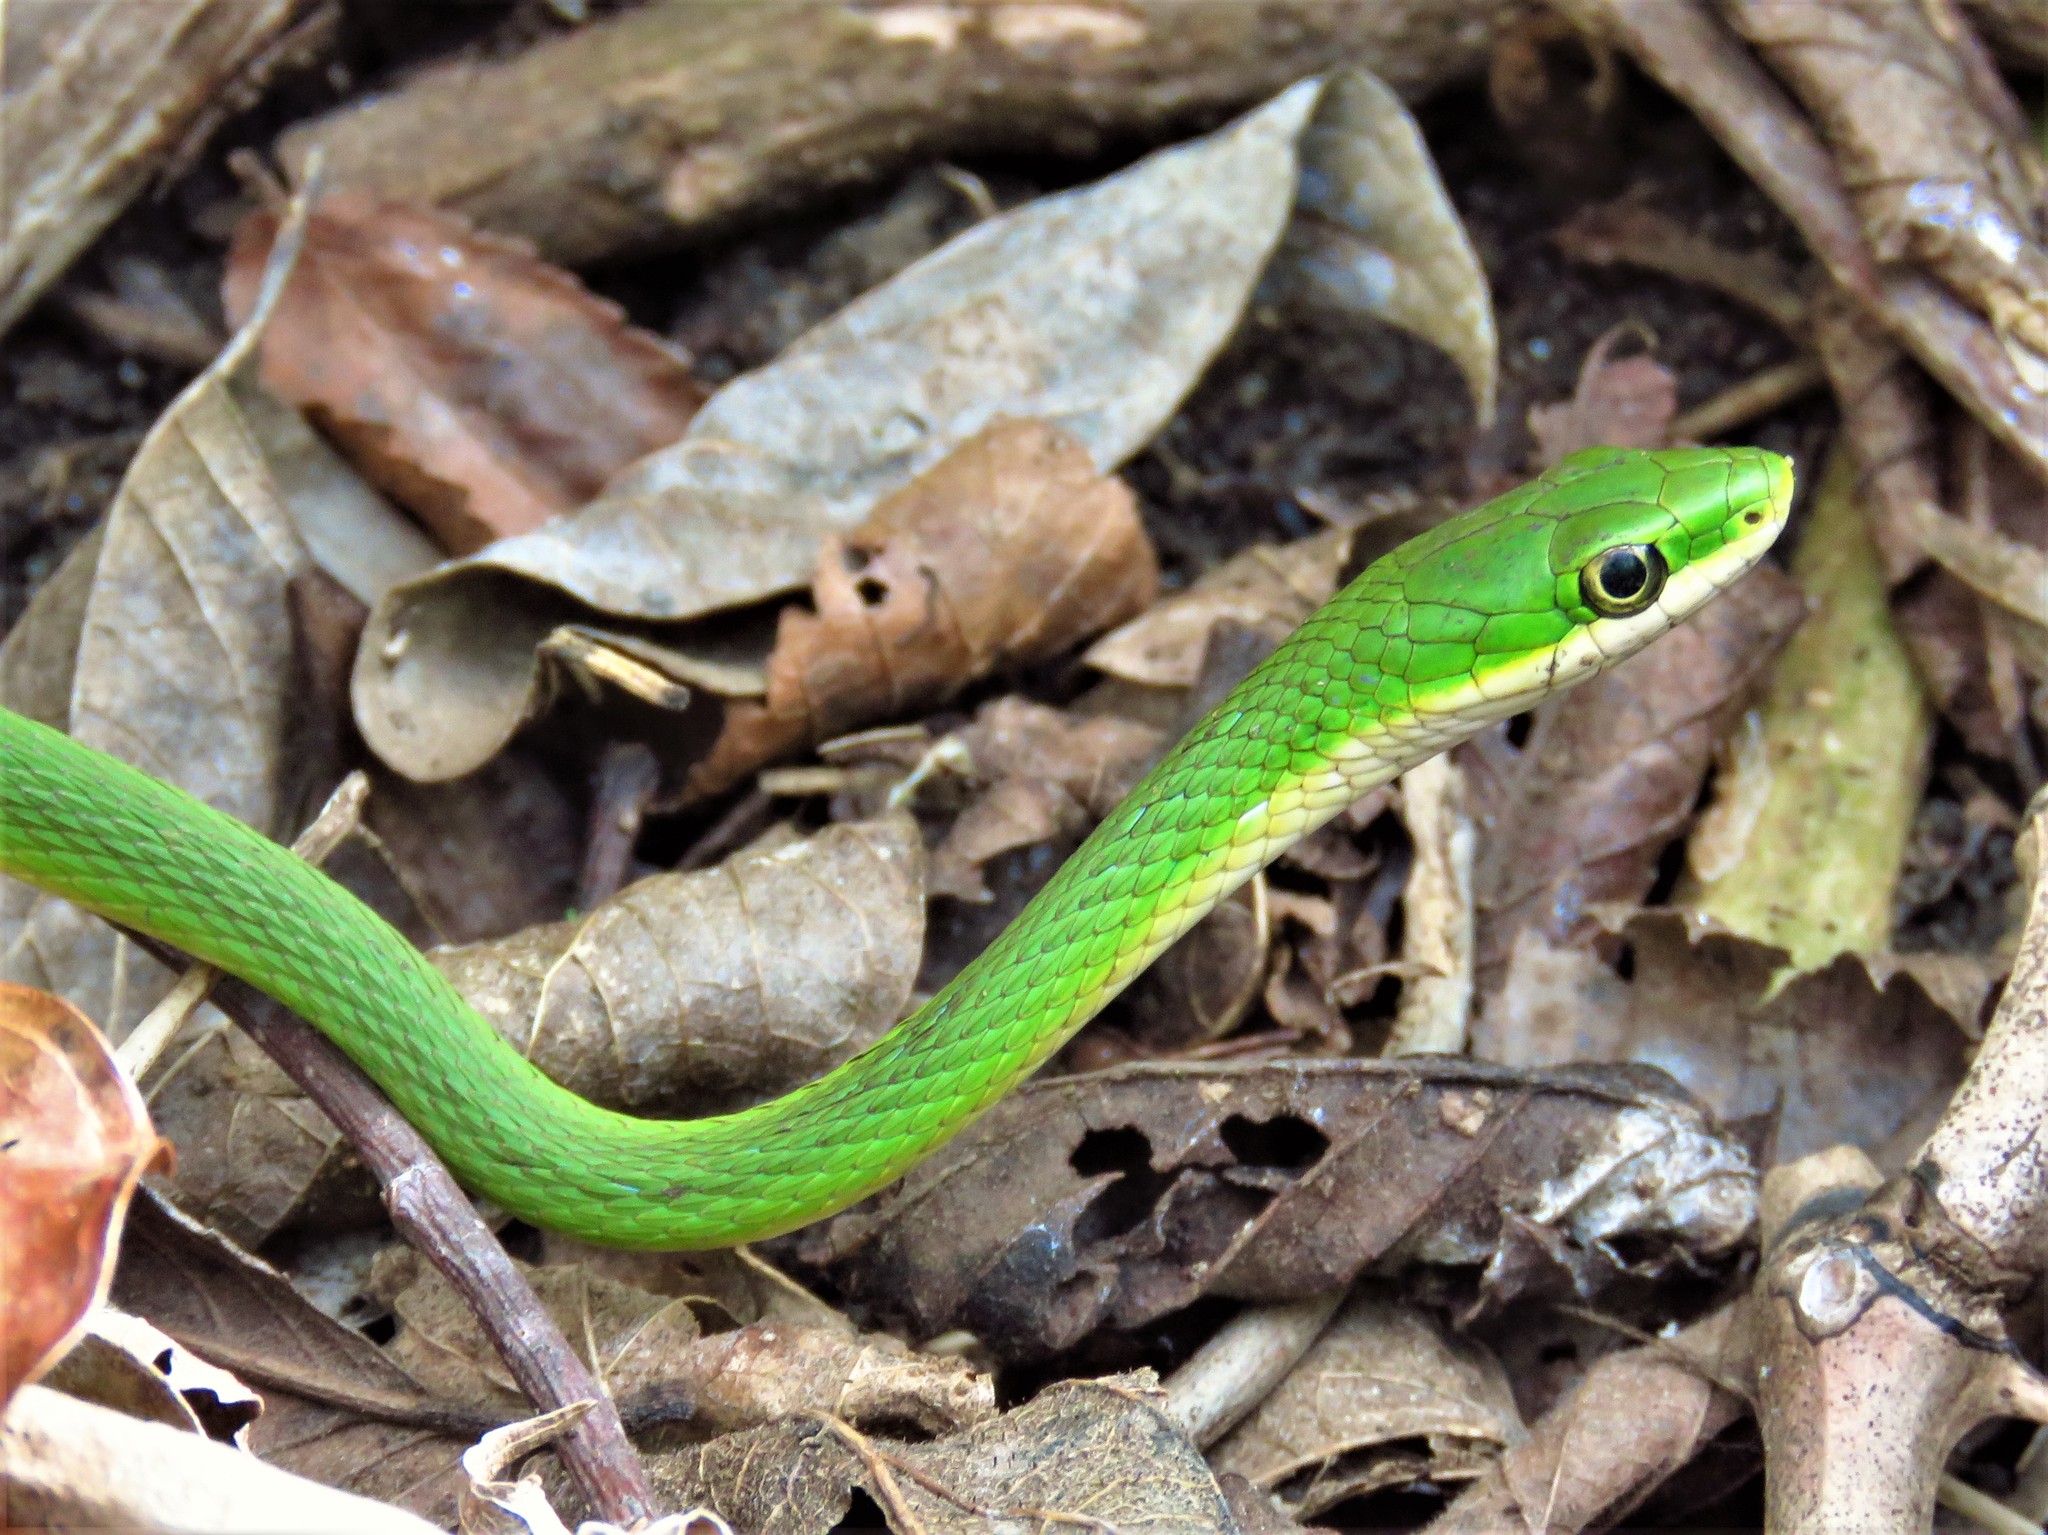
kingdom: Animalia
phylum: Chordata
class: Squamata
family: Colubridae
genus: Opheodrys
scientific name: Opheodrys aestivus
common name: Rough greensnake
